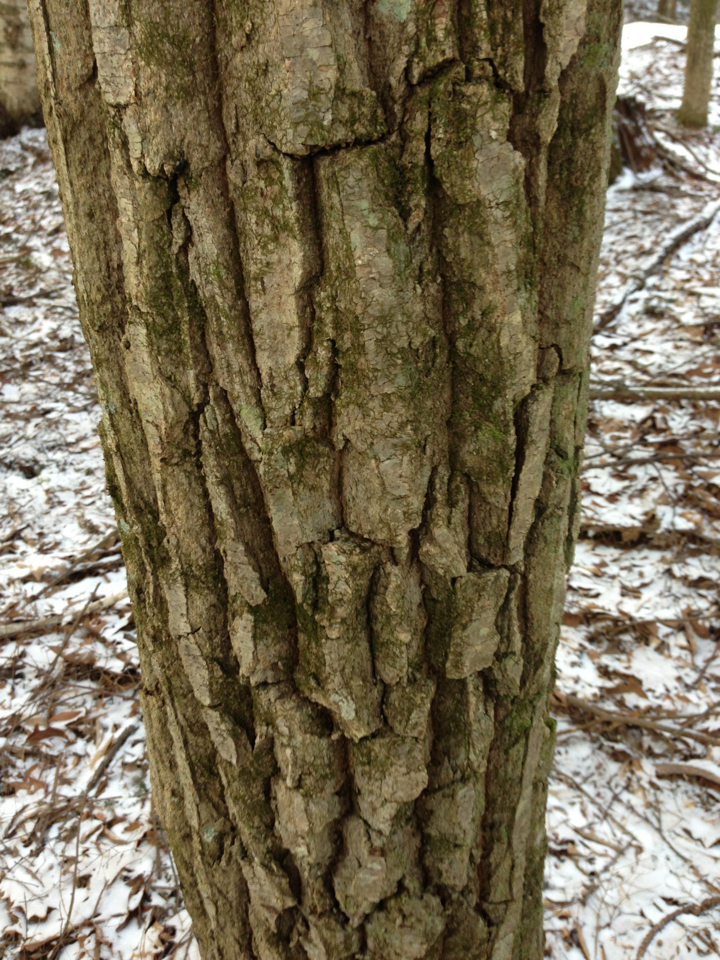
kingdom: Plantae
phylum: Tracheophyta
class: Magnoliopsida
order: Fagales
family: Fagaceae
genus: Quercus
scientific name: Quercus montana
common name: Chestnut oak
